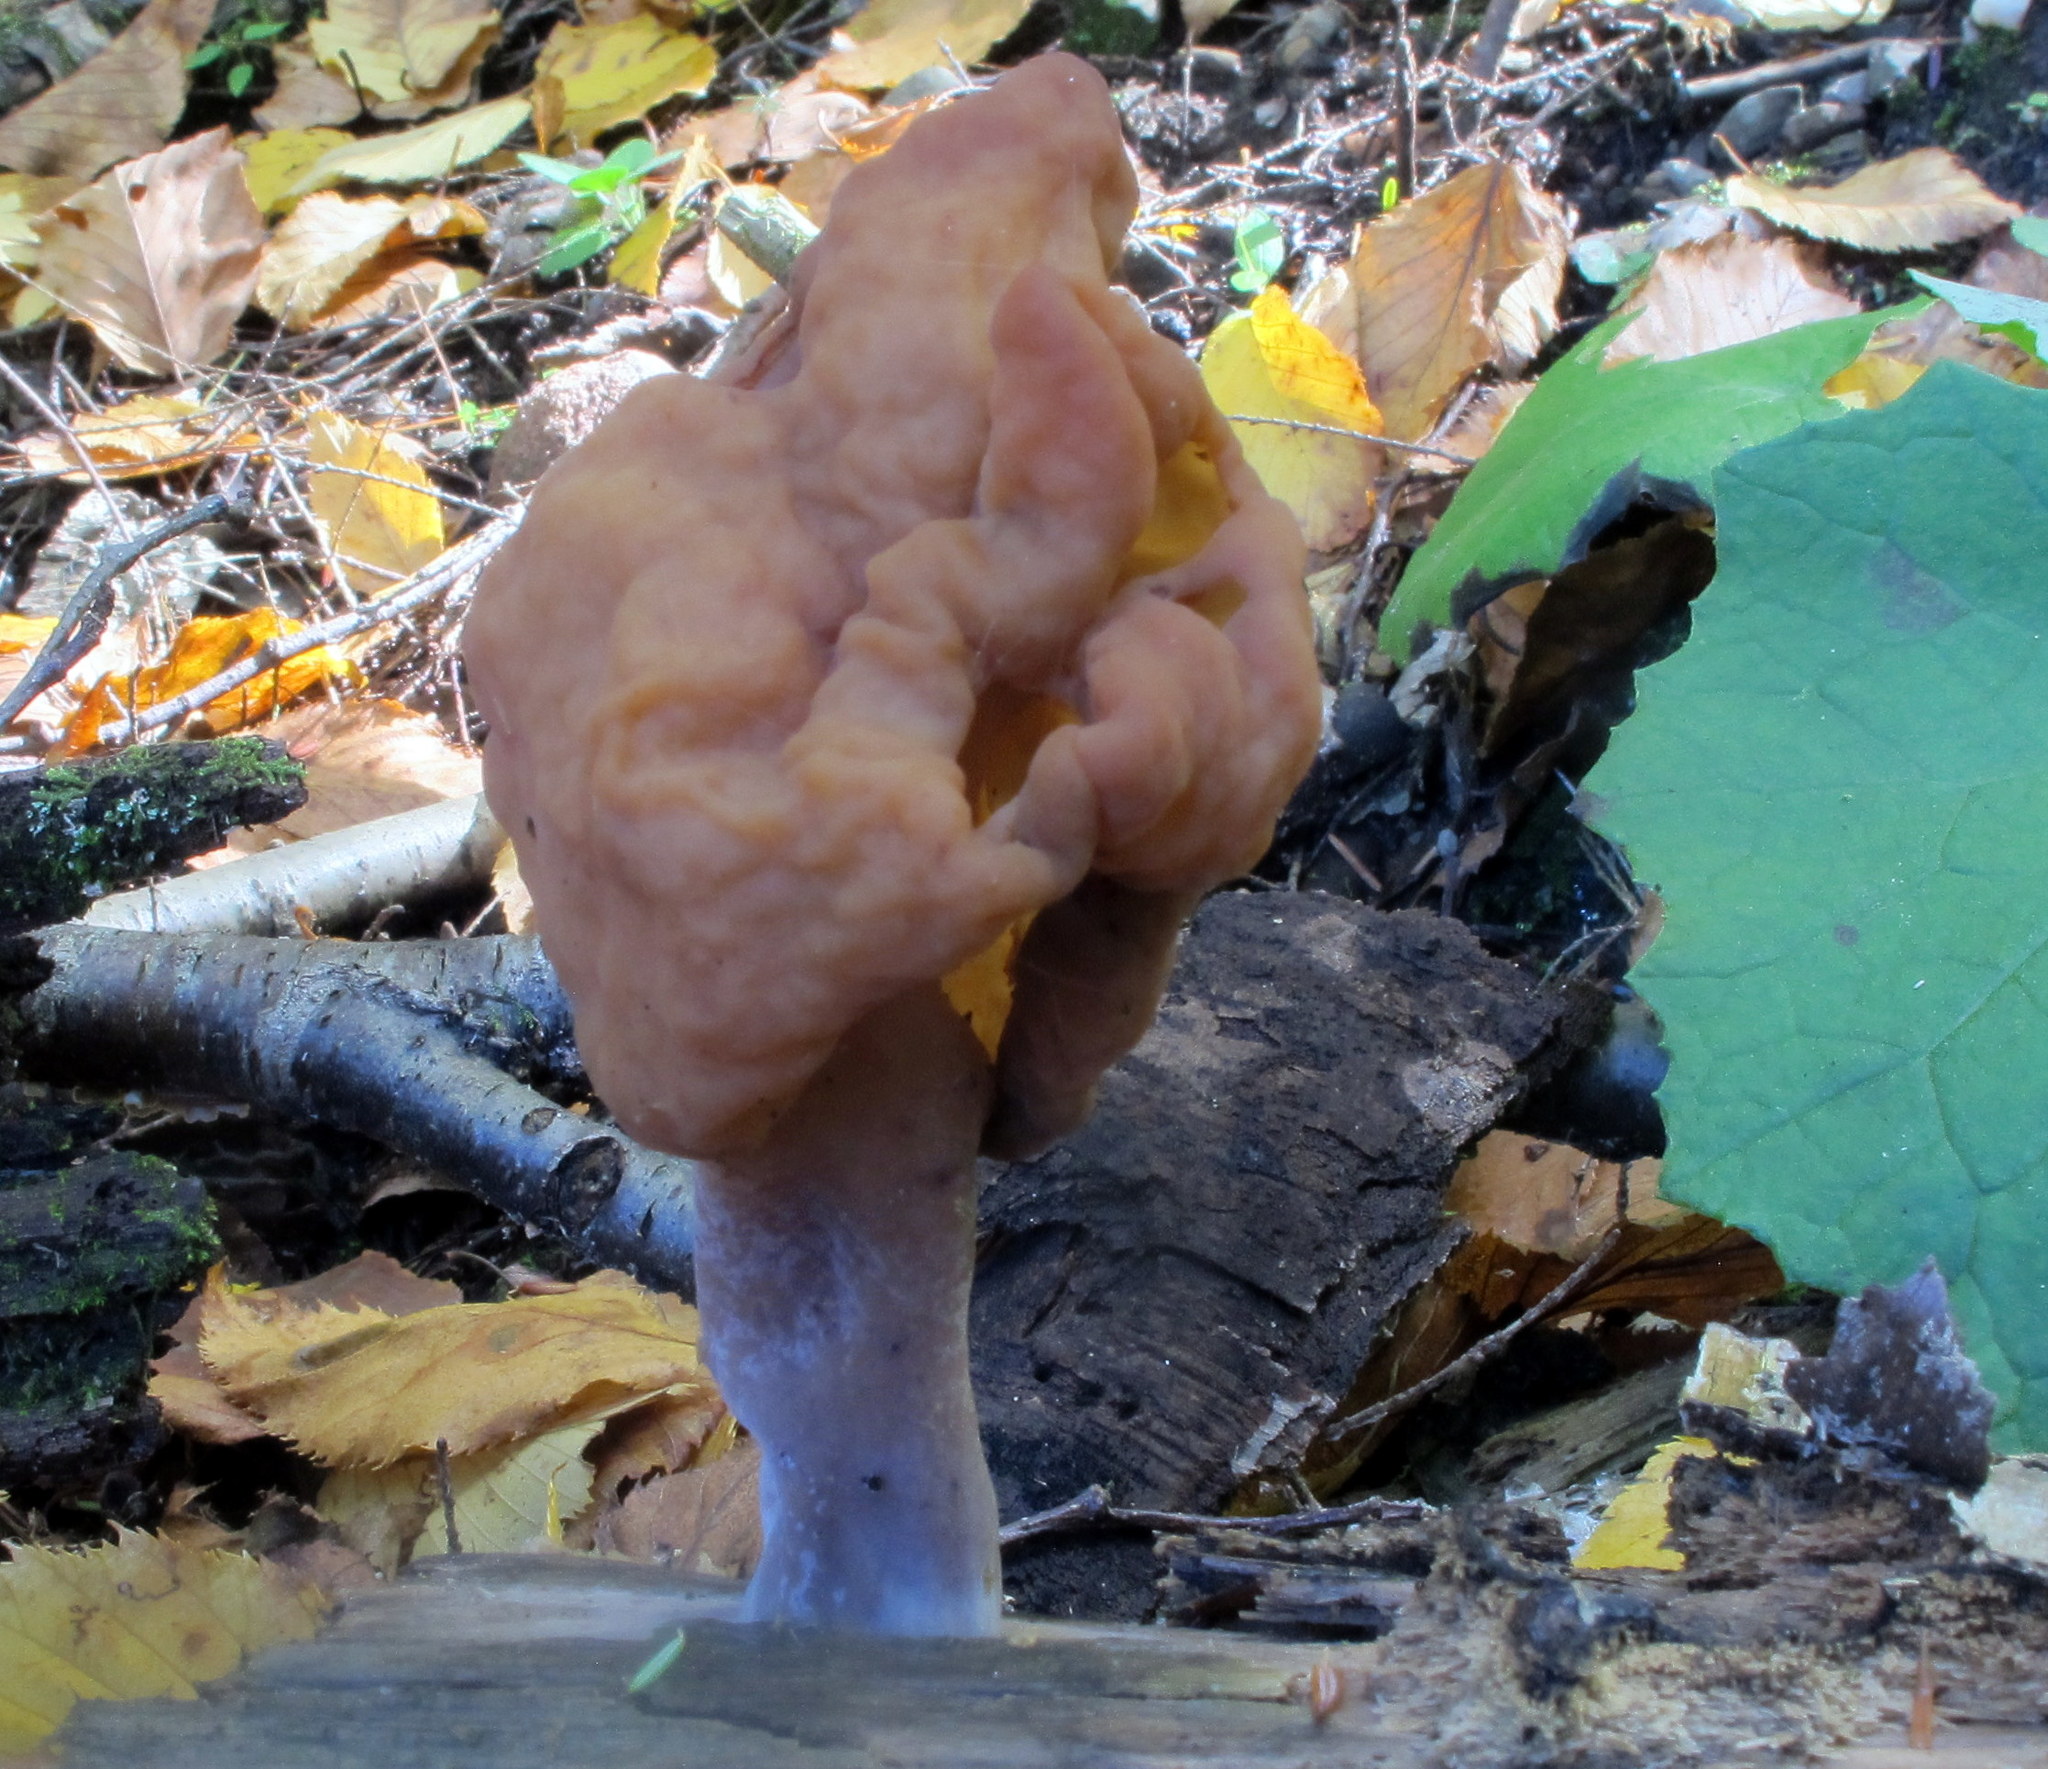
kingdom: Fungi
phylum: Ascomycota
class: Pezizomycetes
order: Pezizales
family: Discinaceae
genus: Gyromitra
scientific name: Gyromitra infula
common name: Pouched false morel
